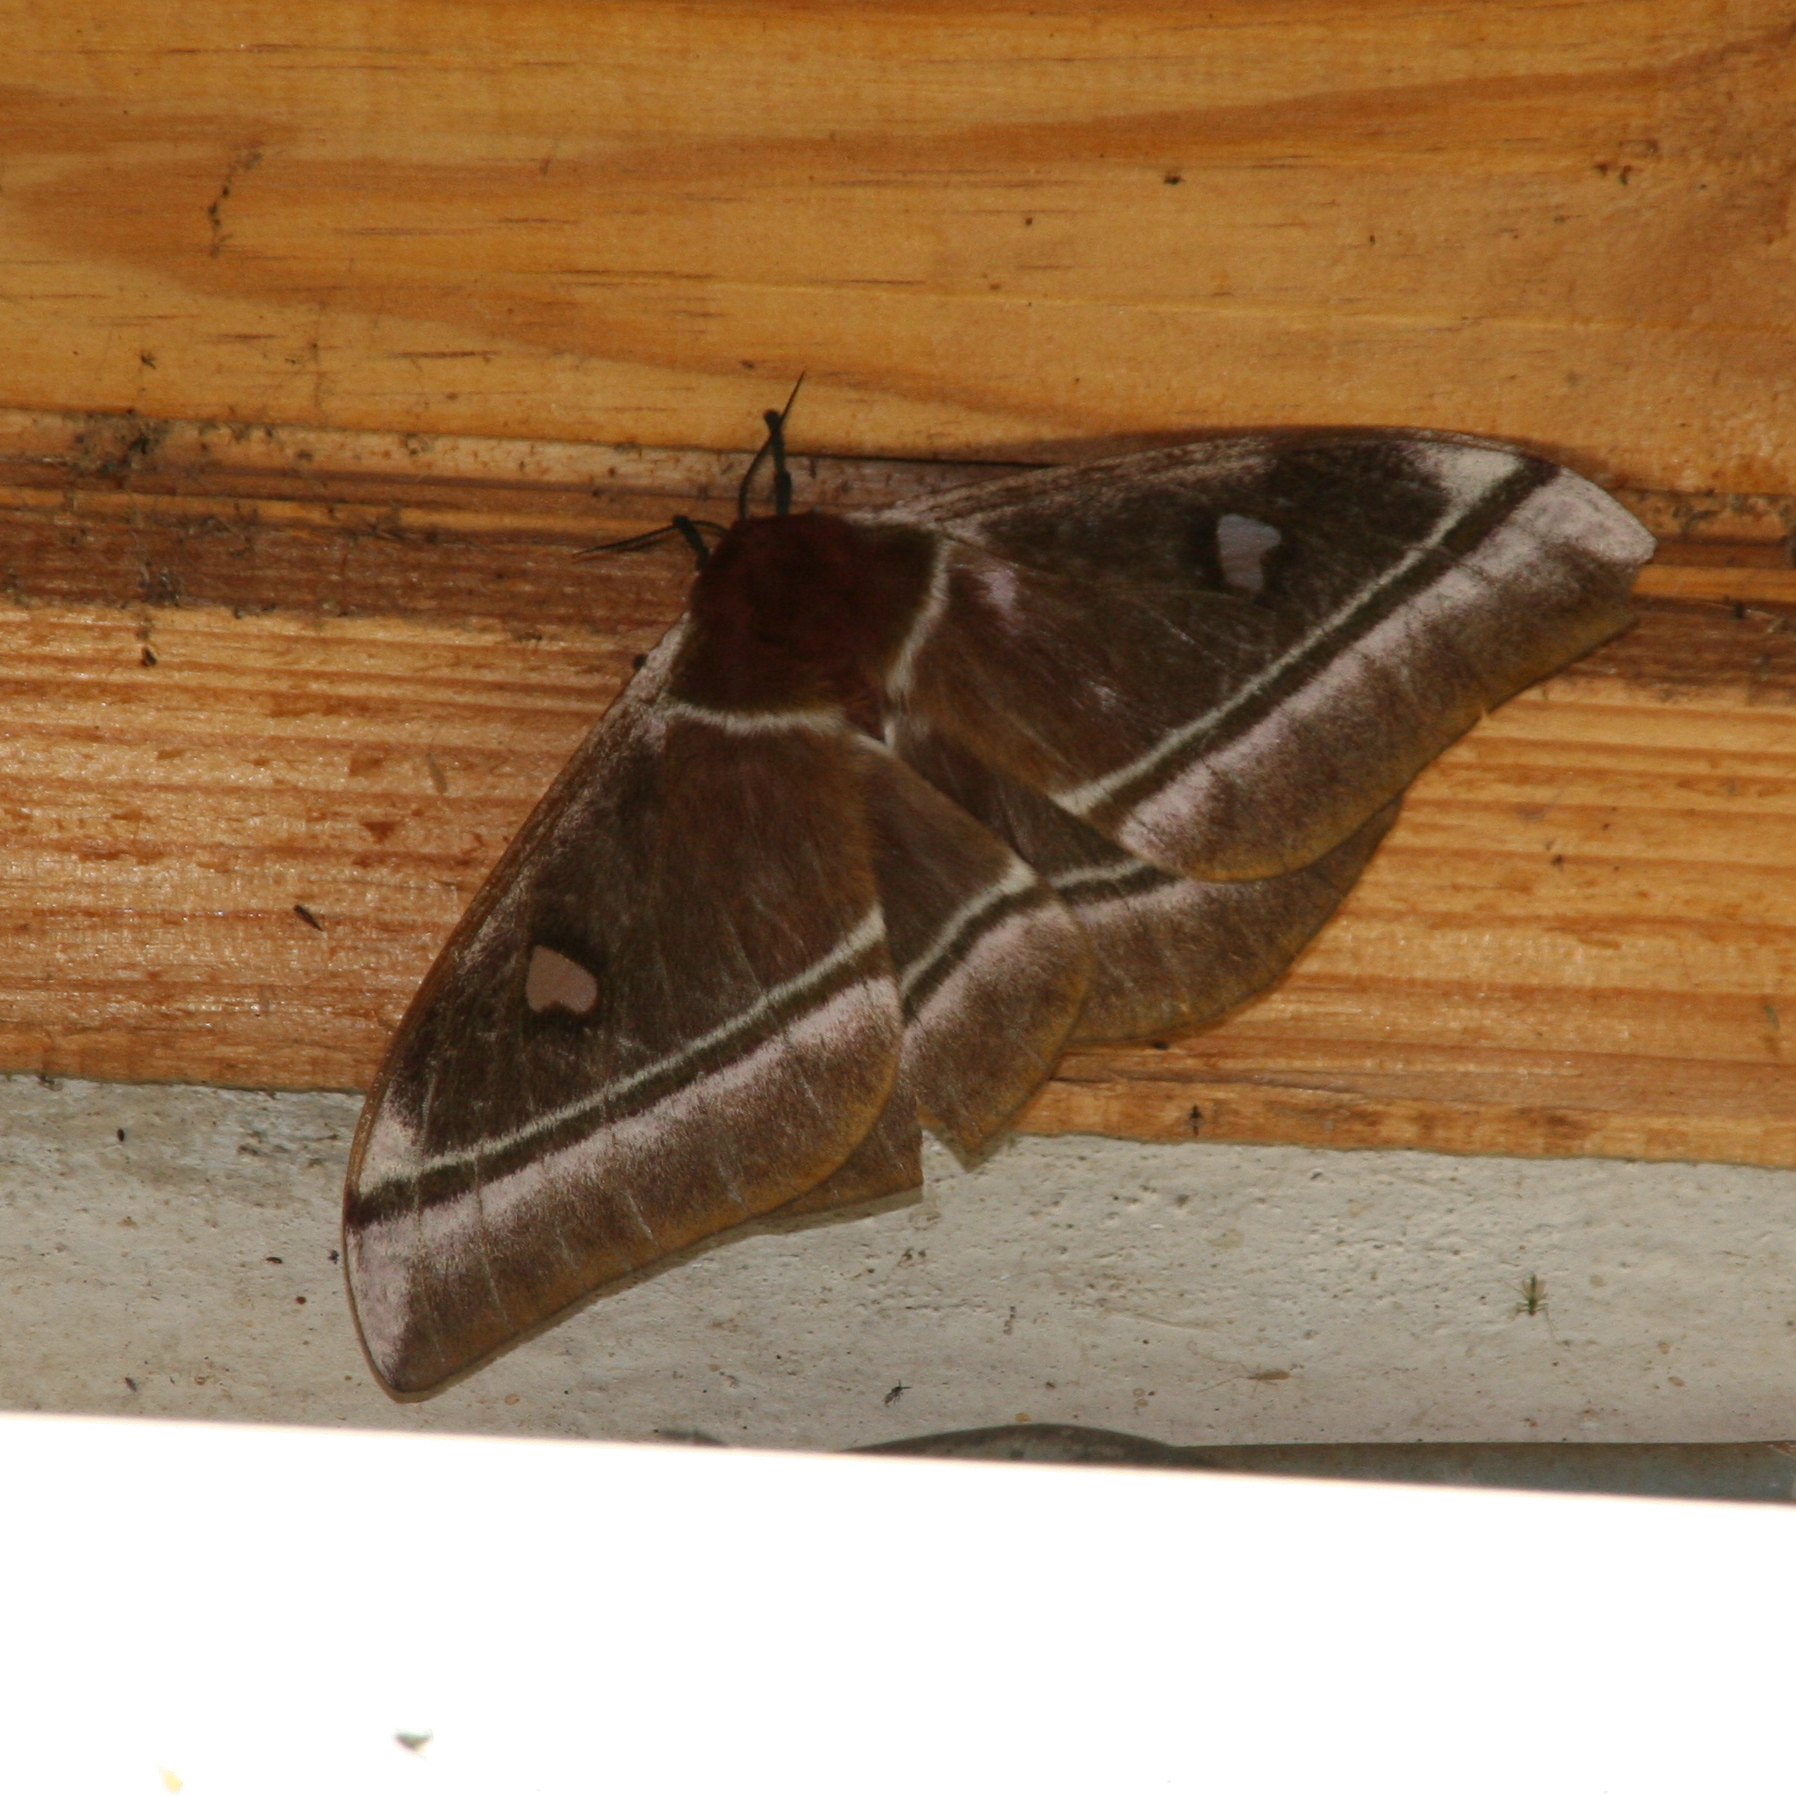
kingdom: Animalia
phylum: Arthropoda
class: Insecta
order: Lepidoptera
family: Saturniidae
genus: Bunaea
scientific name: Bunaea aslauga
